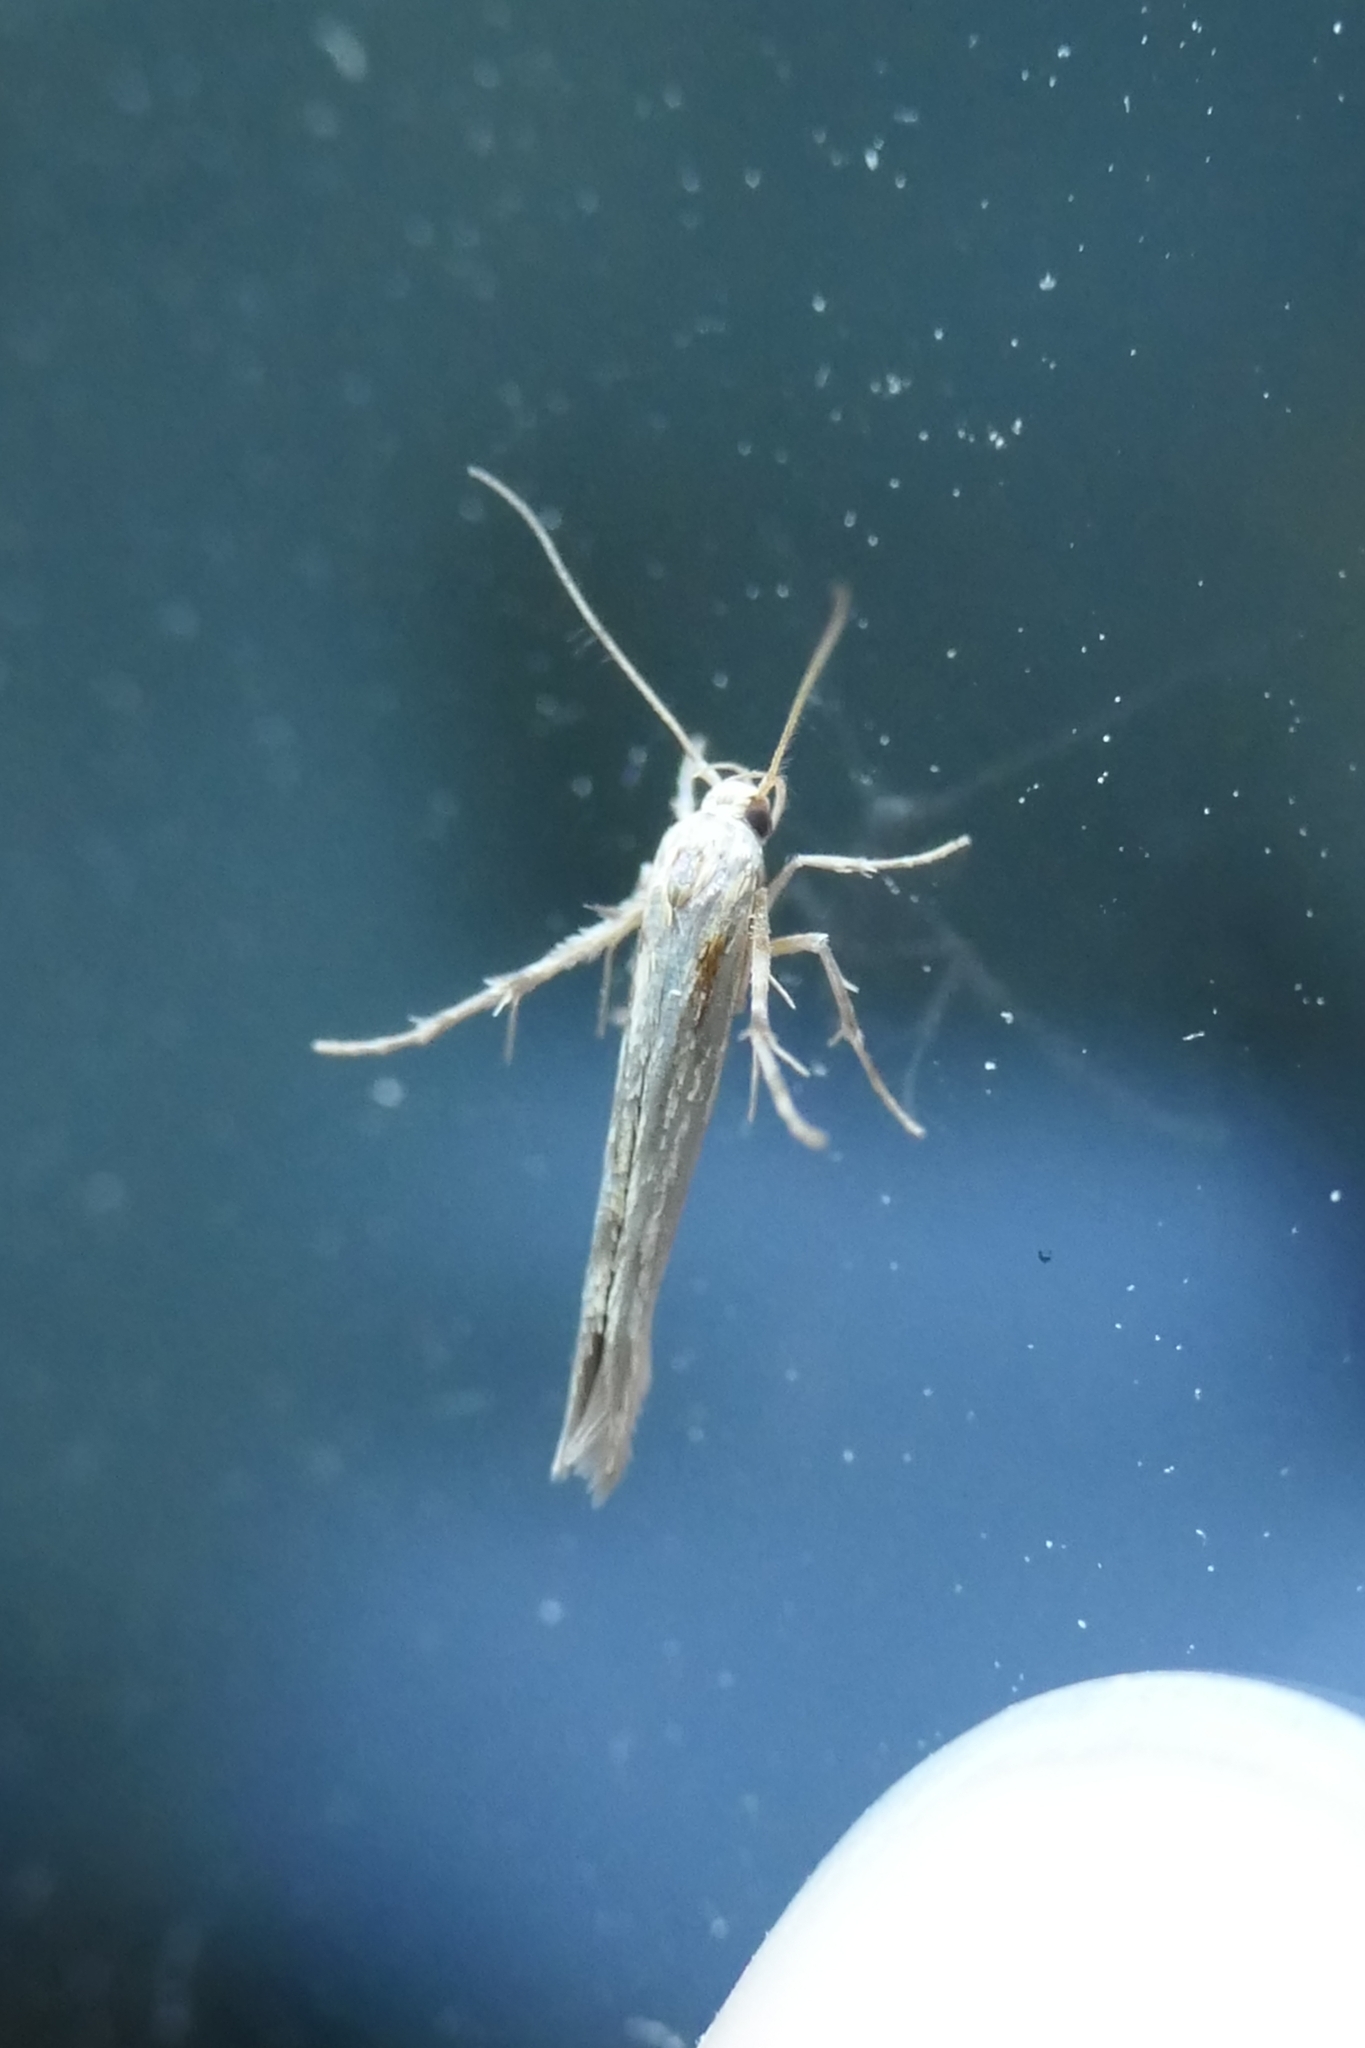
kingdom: Animalia
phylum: Arthropoda
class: Insecta
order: Lepidoptera
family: Stathmopodidae
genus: Stathmopoda
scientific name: Stathmopoda plumbiflua
